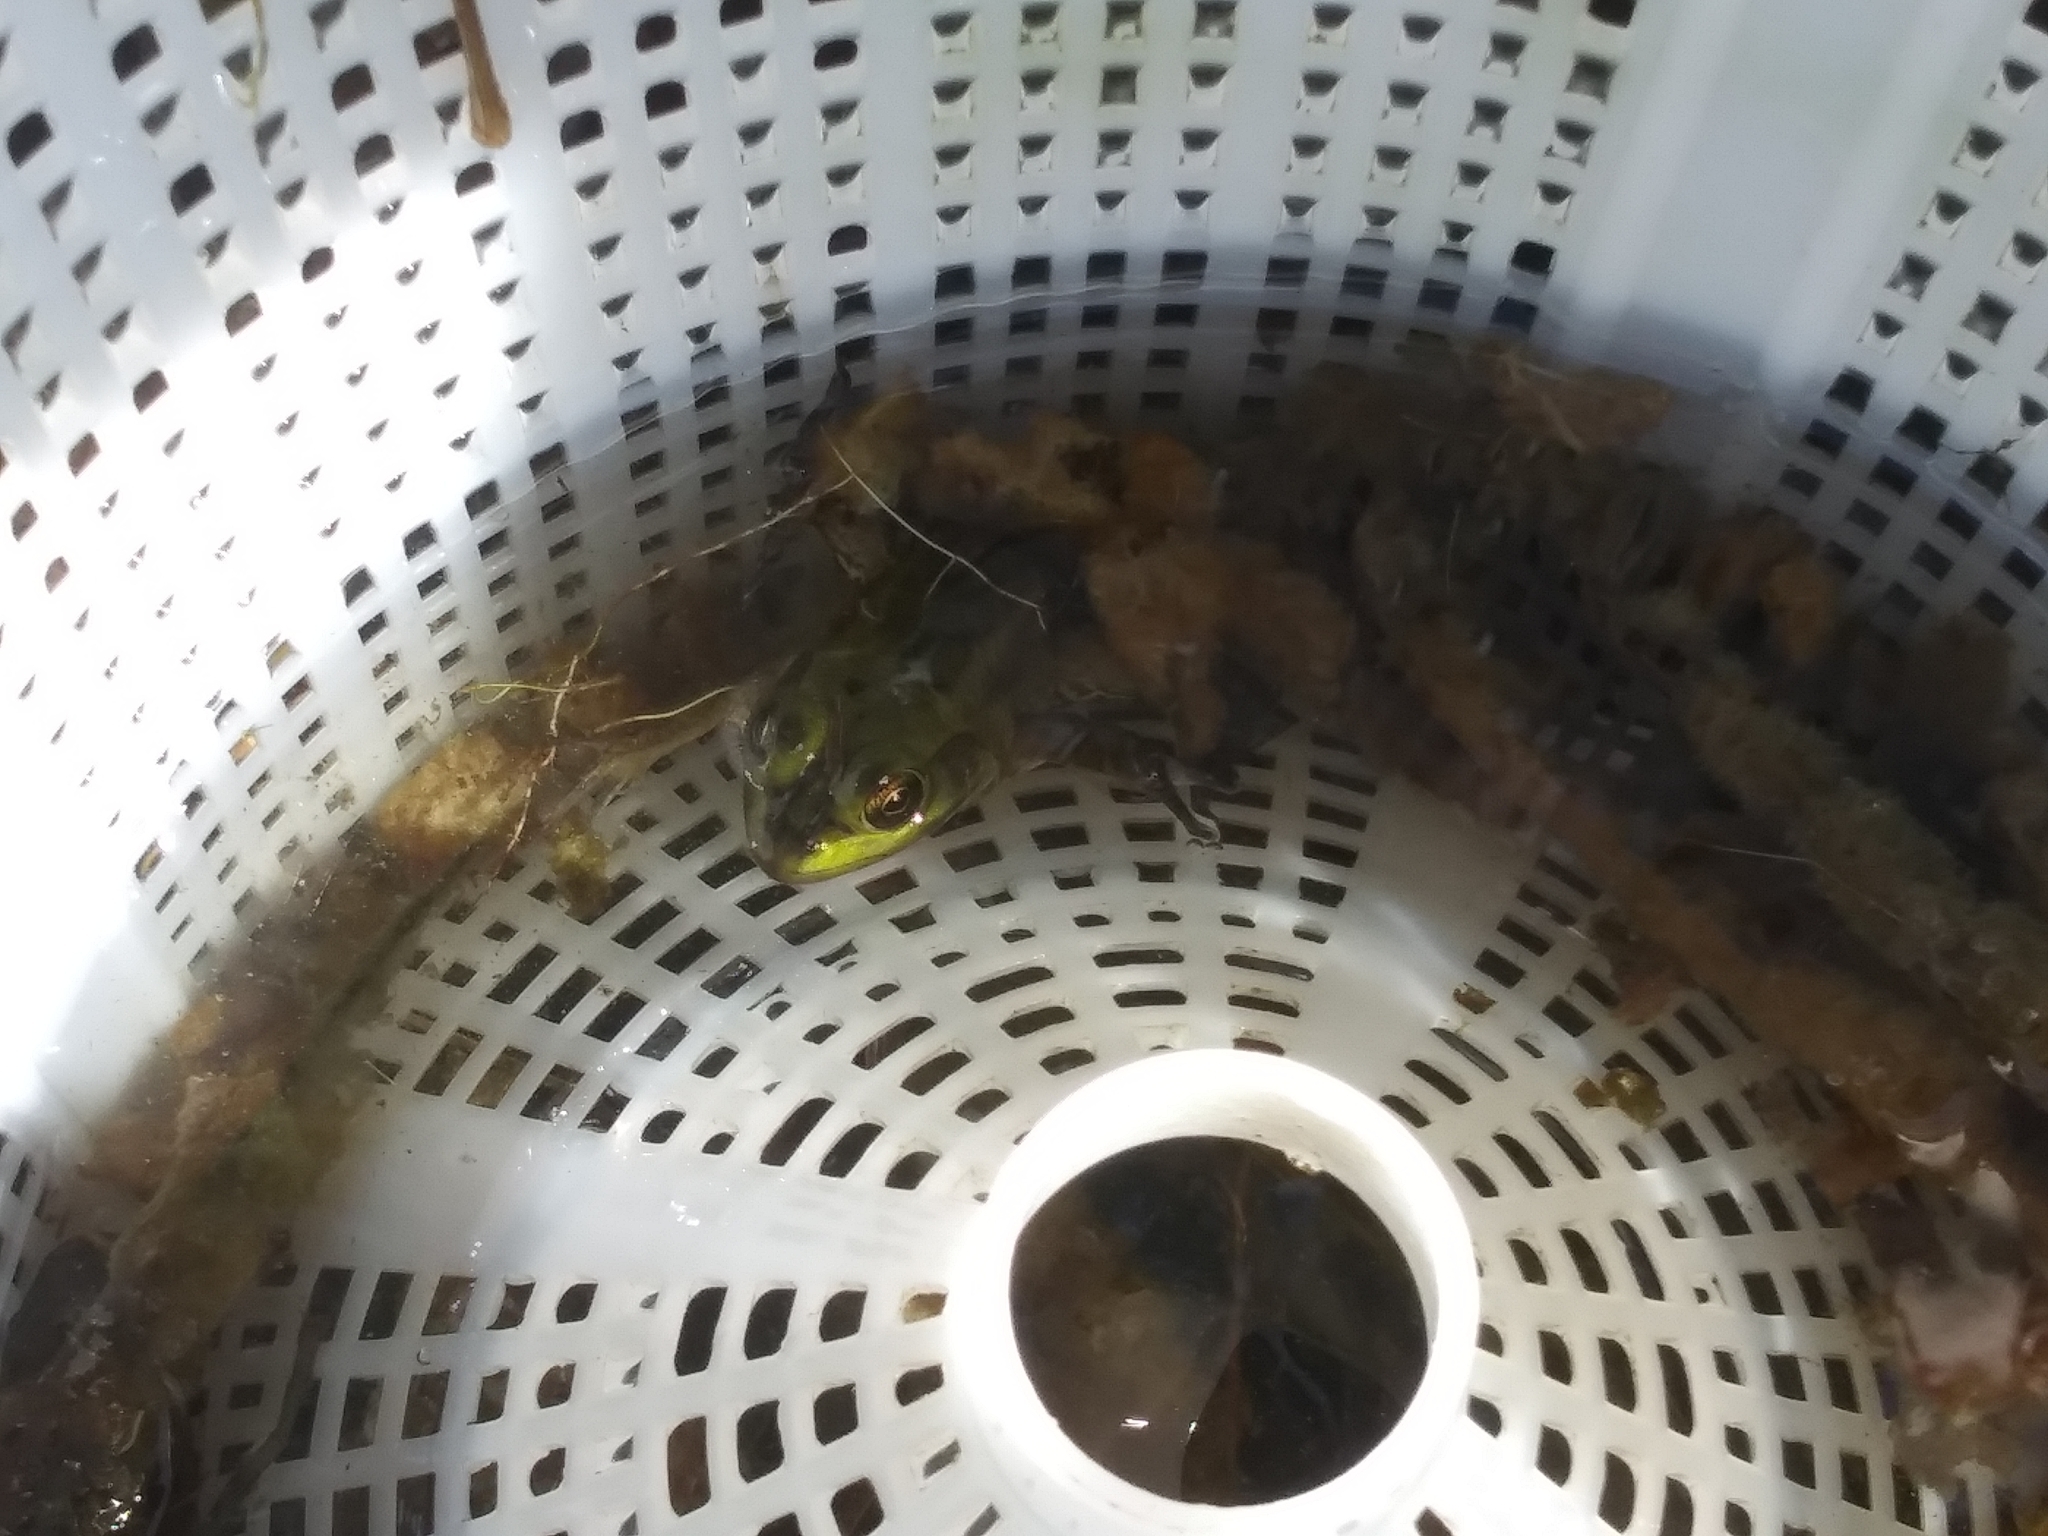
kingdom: Animalia
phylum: Chordata
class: Amphibia
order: Anura
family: Ranidae
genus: Lithobates
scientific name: Lithobates grylio
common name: Pig frog
